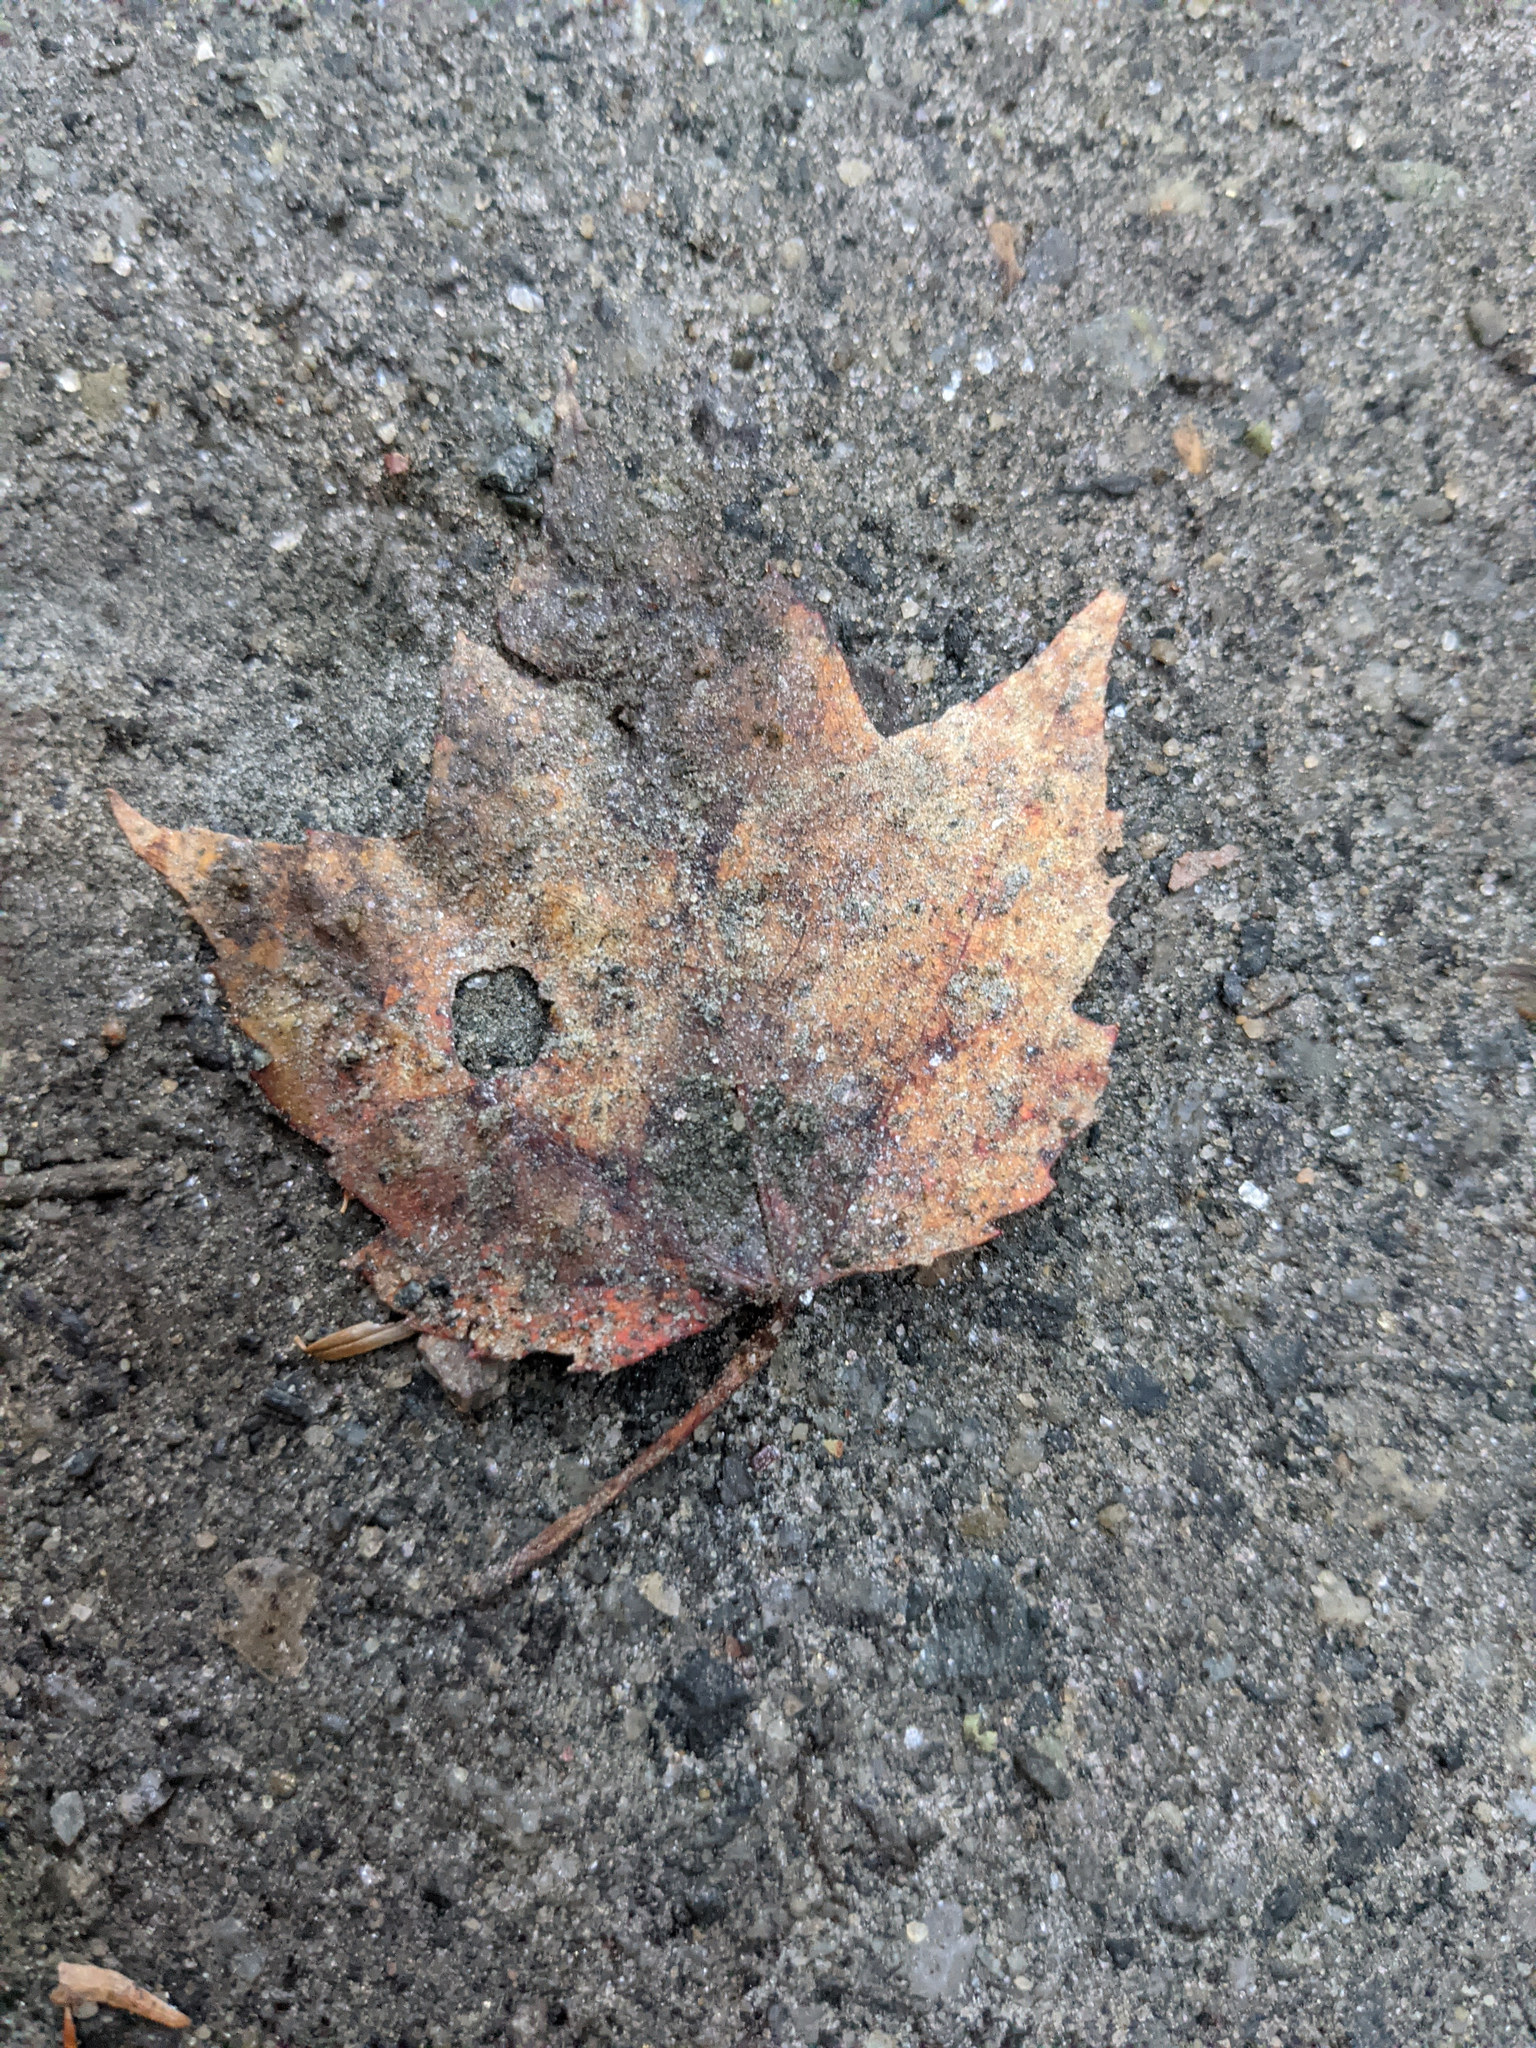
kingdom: Plantae
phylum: Tracheophyta
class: Magnoliopsida
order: Sapindales
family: Sapindaceae
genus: Acer
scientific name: Acer rubrum
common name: Red maple
